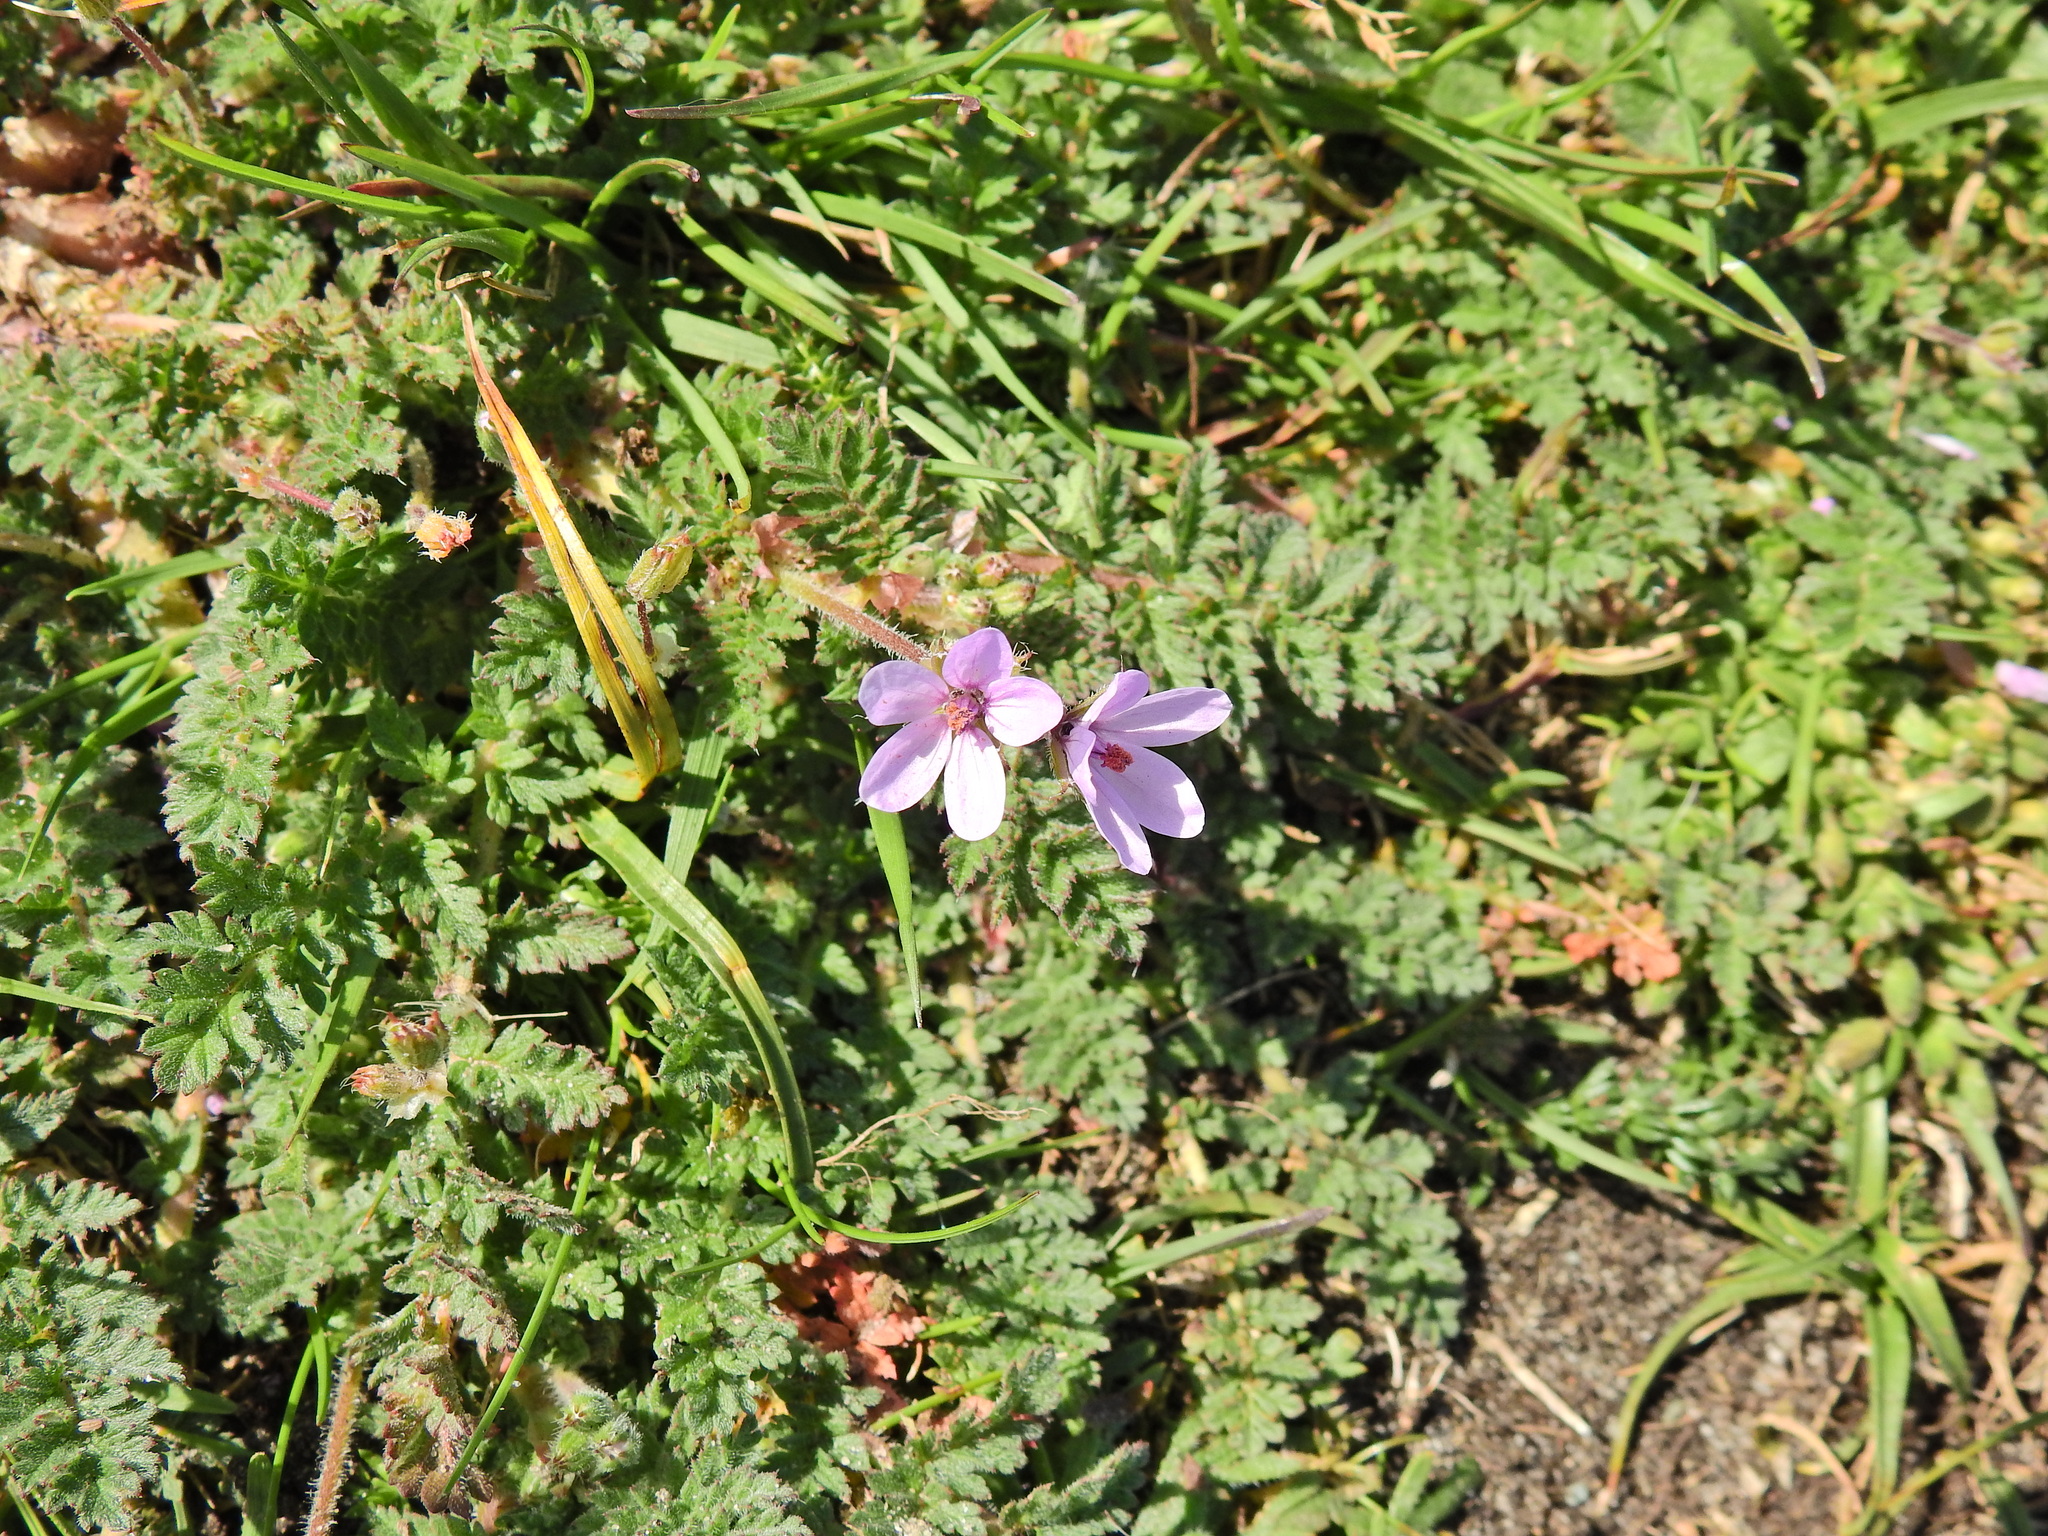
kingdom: Plantae
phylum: Tracheophyta
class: Magnoliopsida
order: Geraniales
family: Geraniaceae
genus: Erodium
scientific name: Erodium cicutarium
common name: Common stork's-bill
